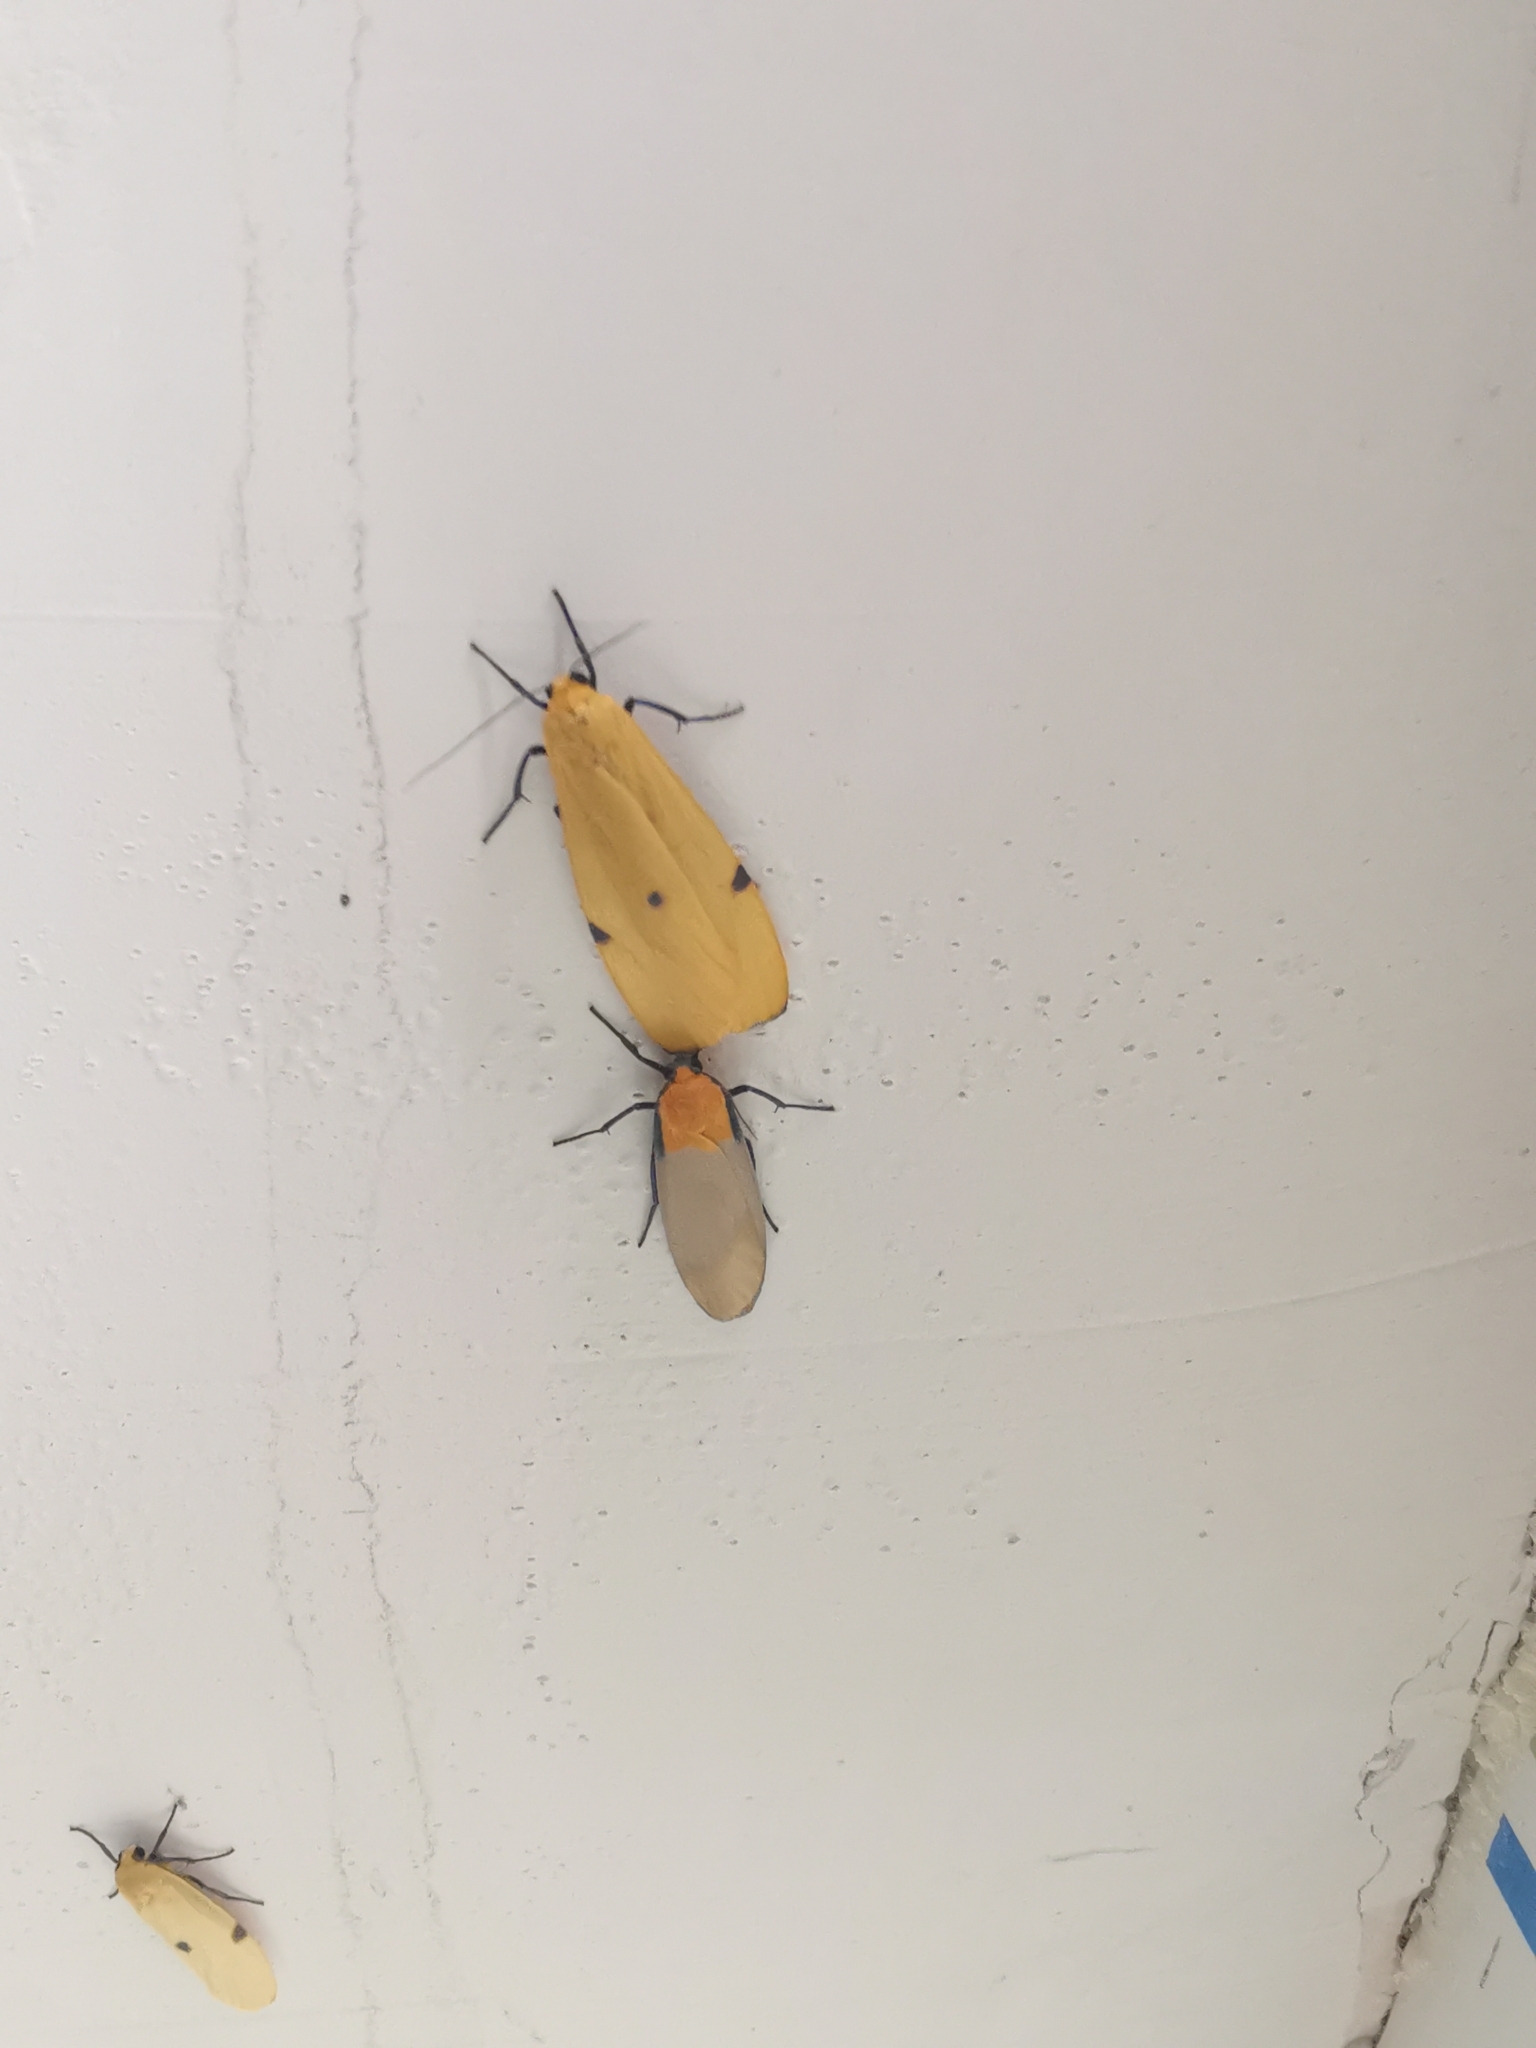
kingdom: Animalia
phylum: Arthropoda
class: Insecta
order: Lepidoptera
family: Erebidae
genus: Lithosia
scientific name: Lithosia quadra
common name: Four-spotted footman
